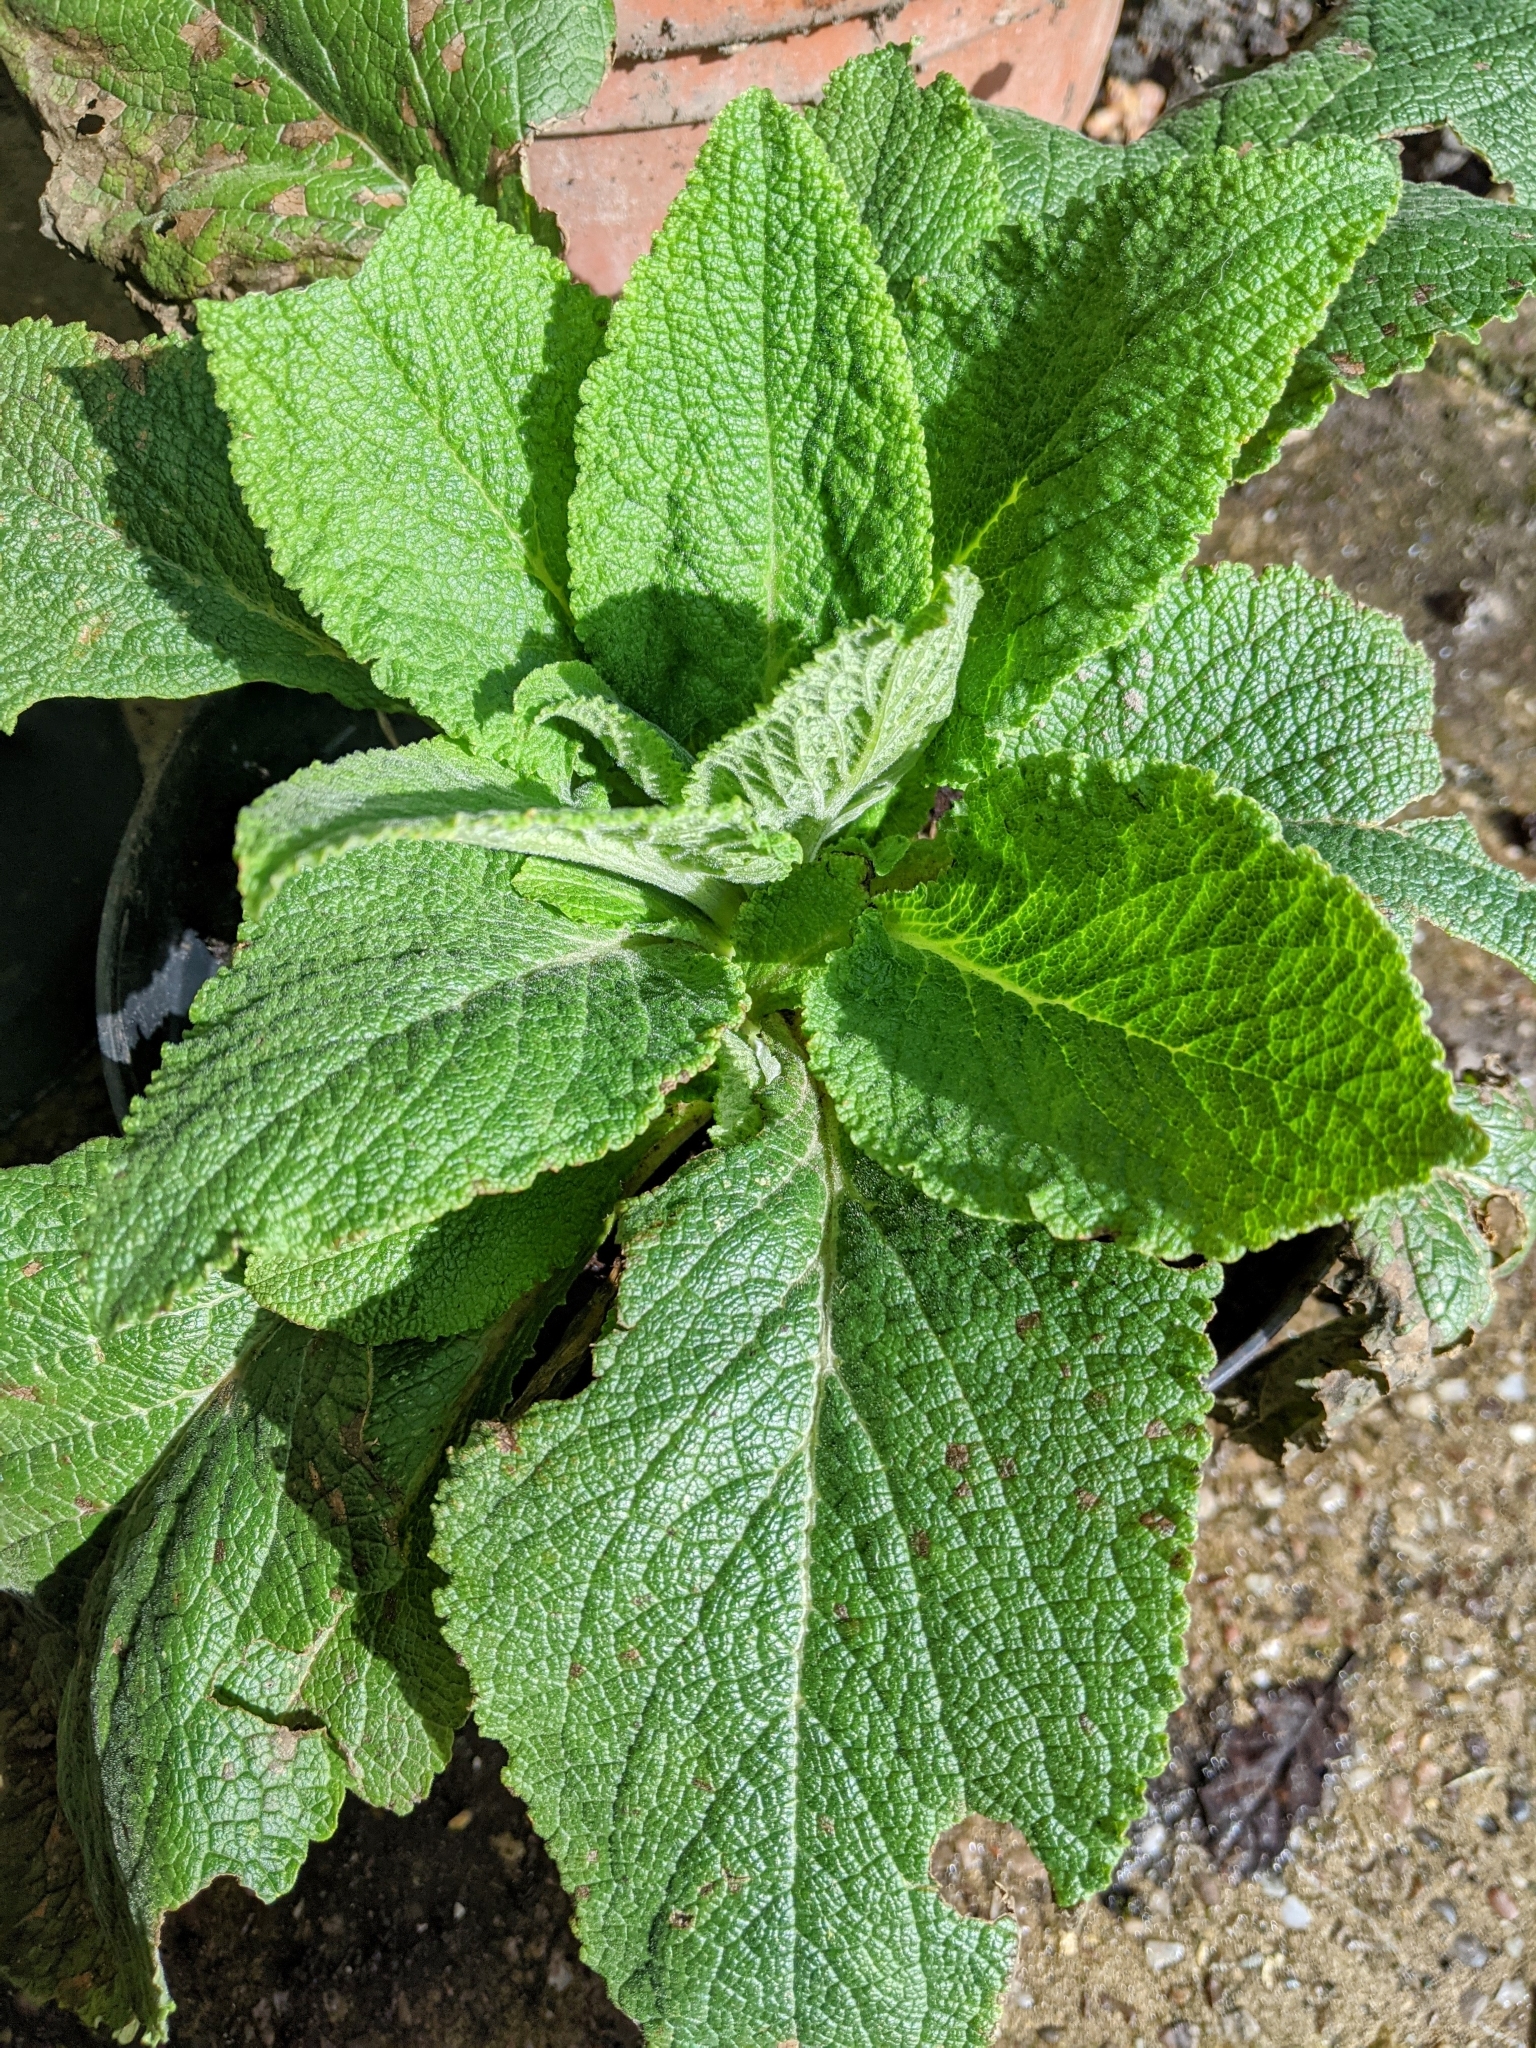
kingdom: Plantae
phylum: Tracheophyta
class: Magnoliopsida
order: Lamiales
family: Plantaginaceae
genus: Digitalis
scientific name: Digitalis purpurea
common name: Foxglove
